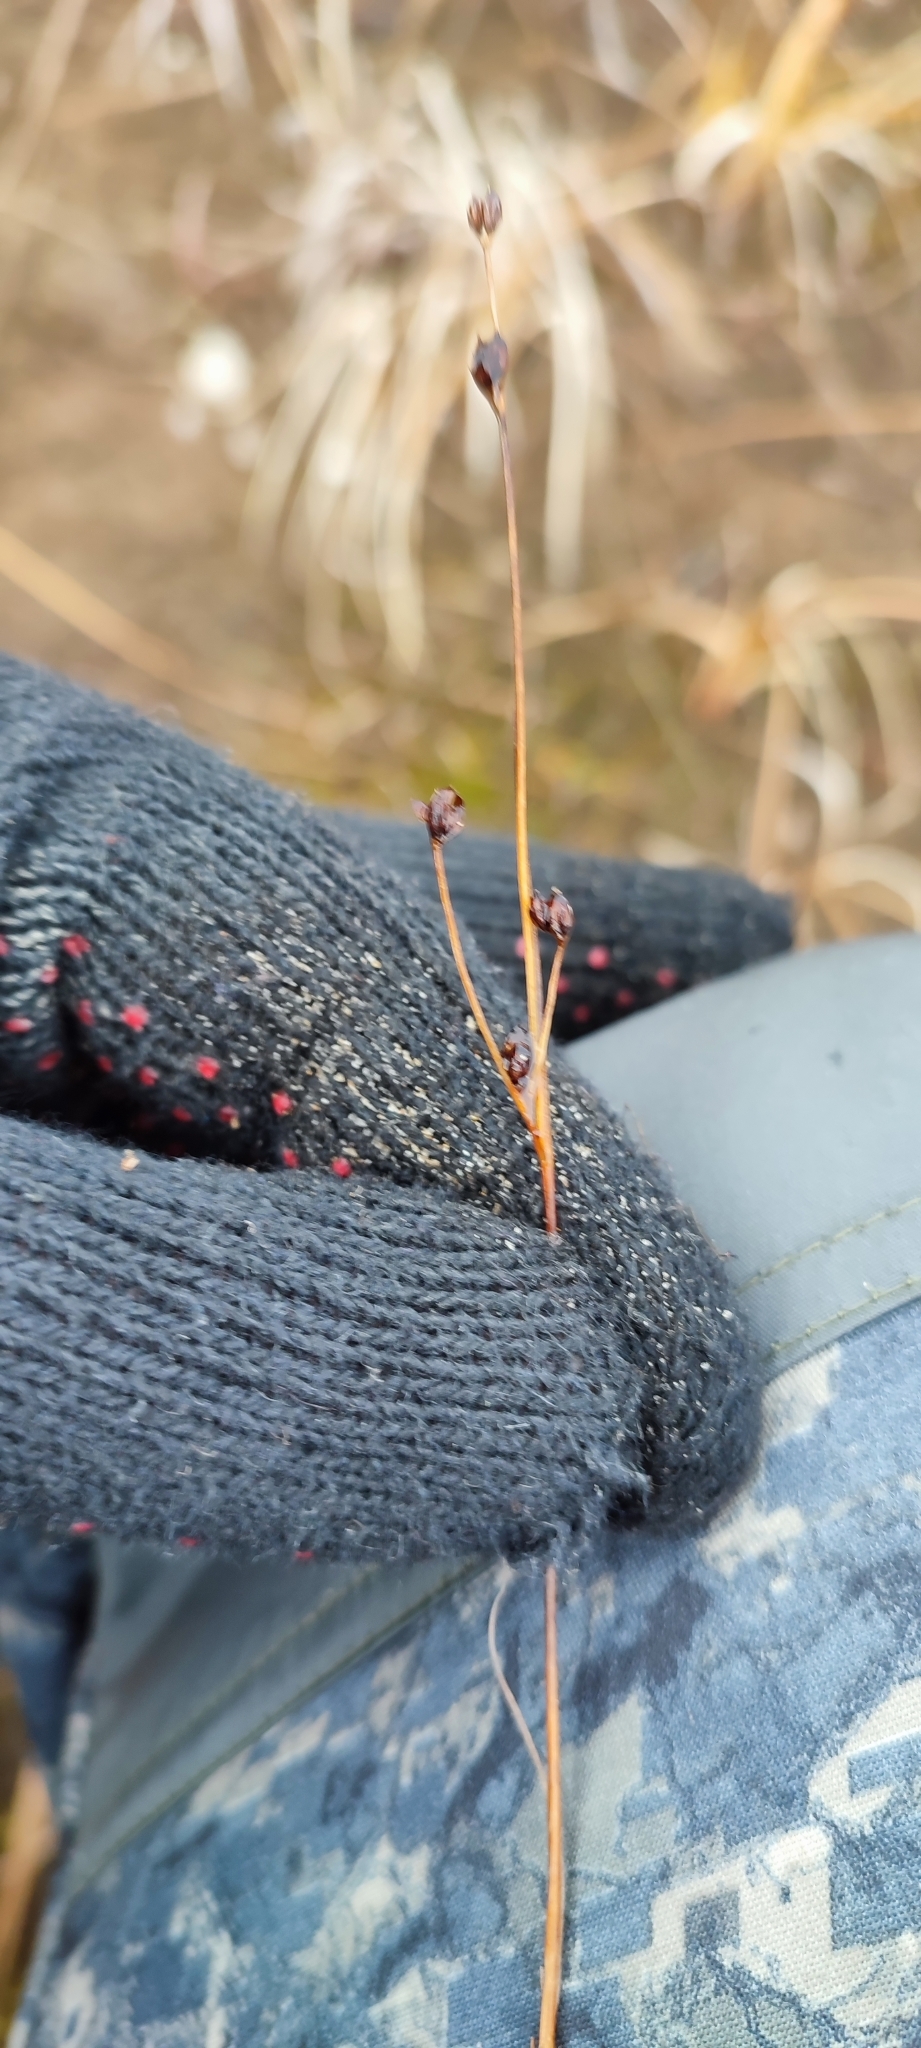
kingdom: Plantae
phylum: Tracheophyta
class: Liliopsida
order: Poales
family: Juncaceae
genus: Juncus
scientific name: Juncus alpinoarticulatus
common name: Alpine rush
